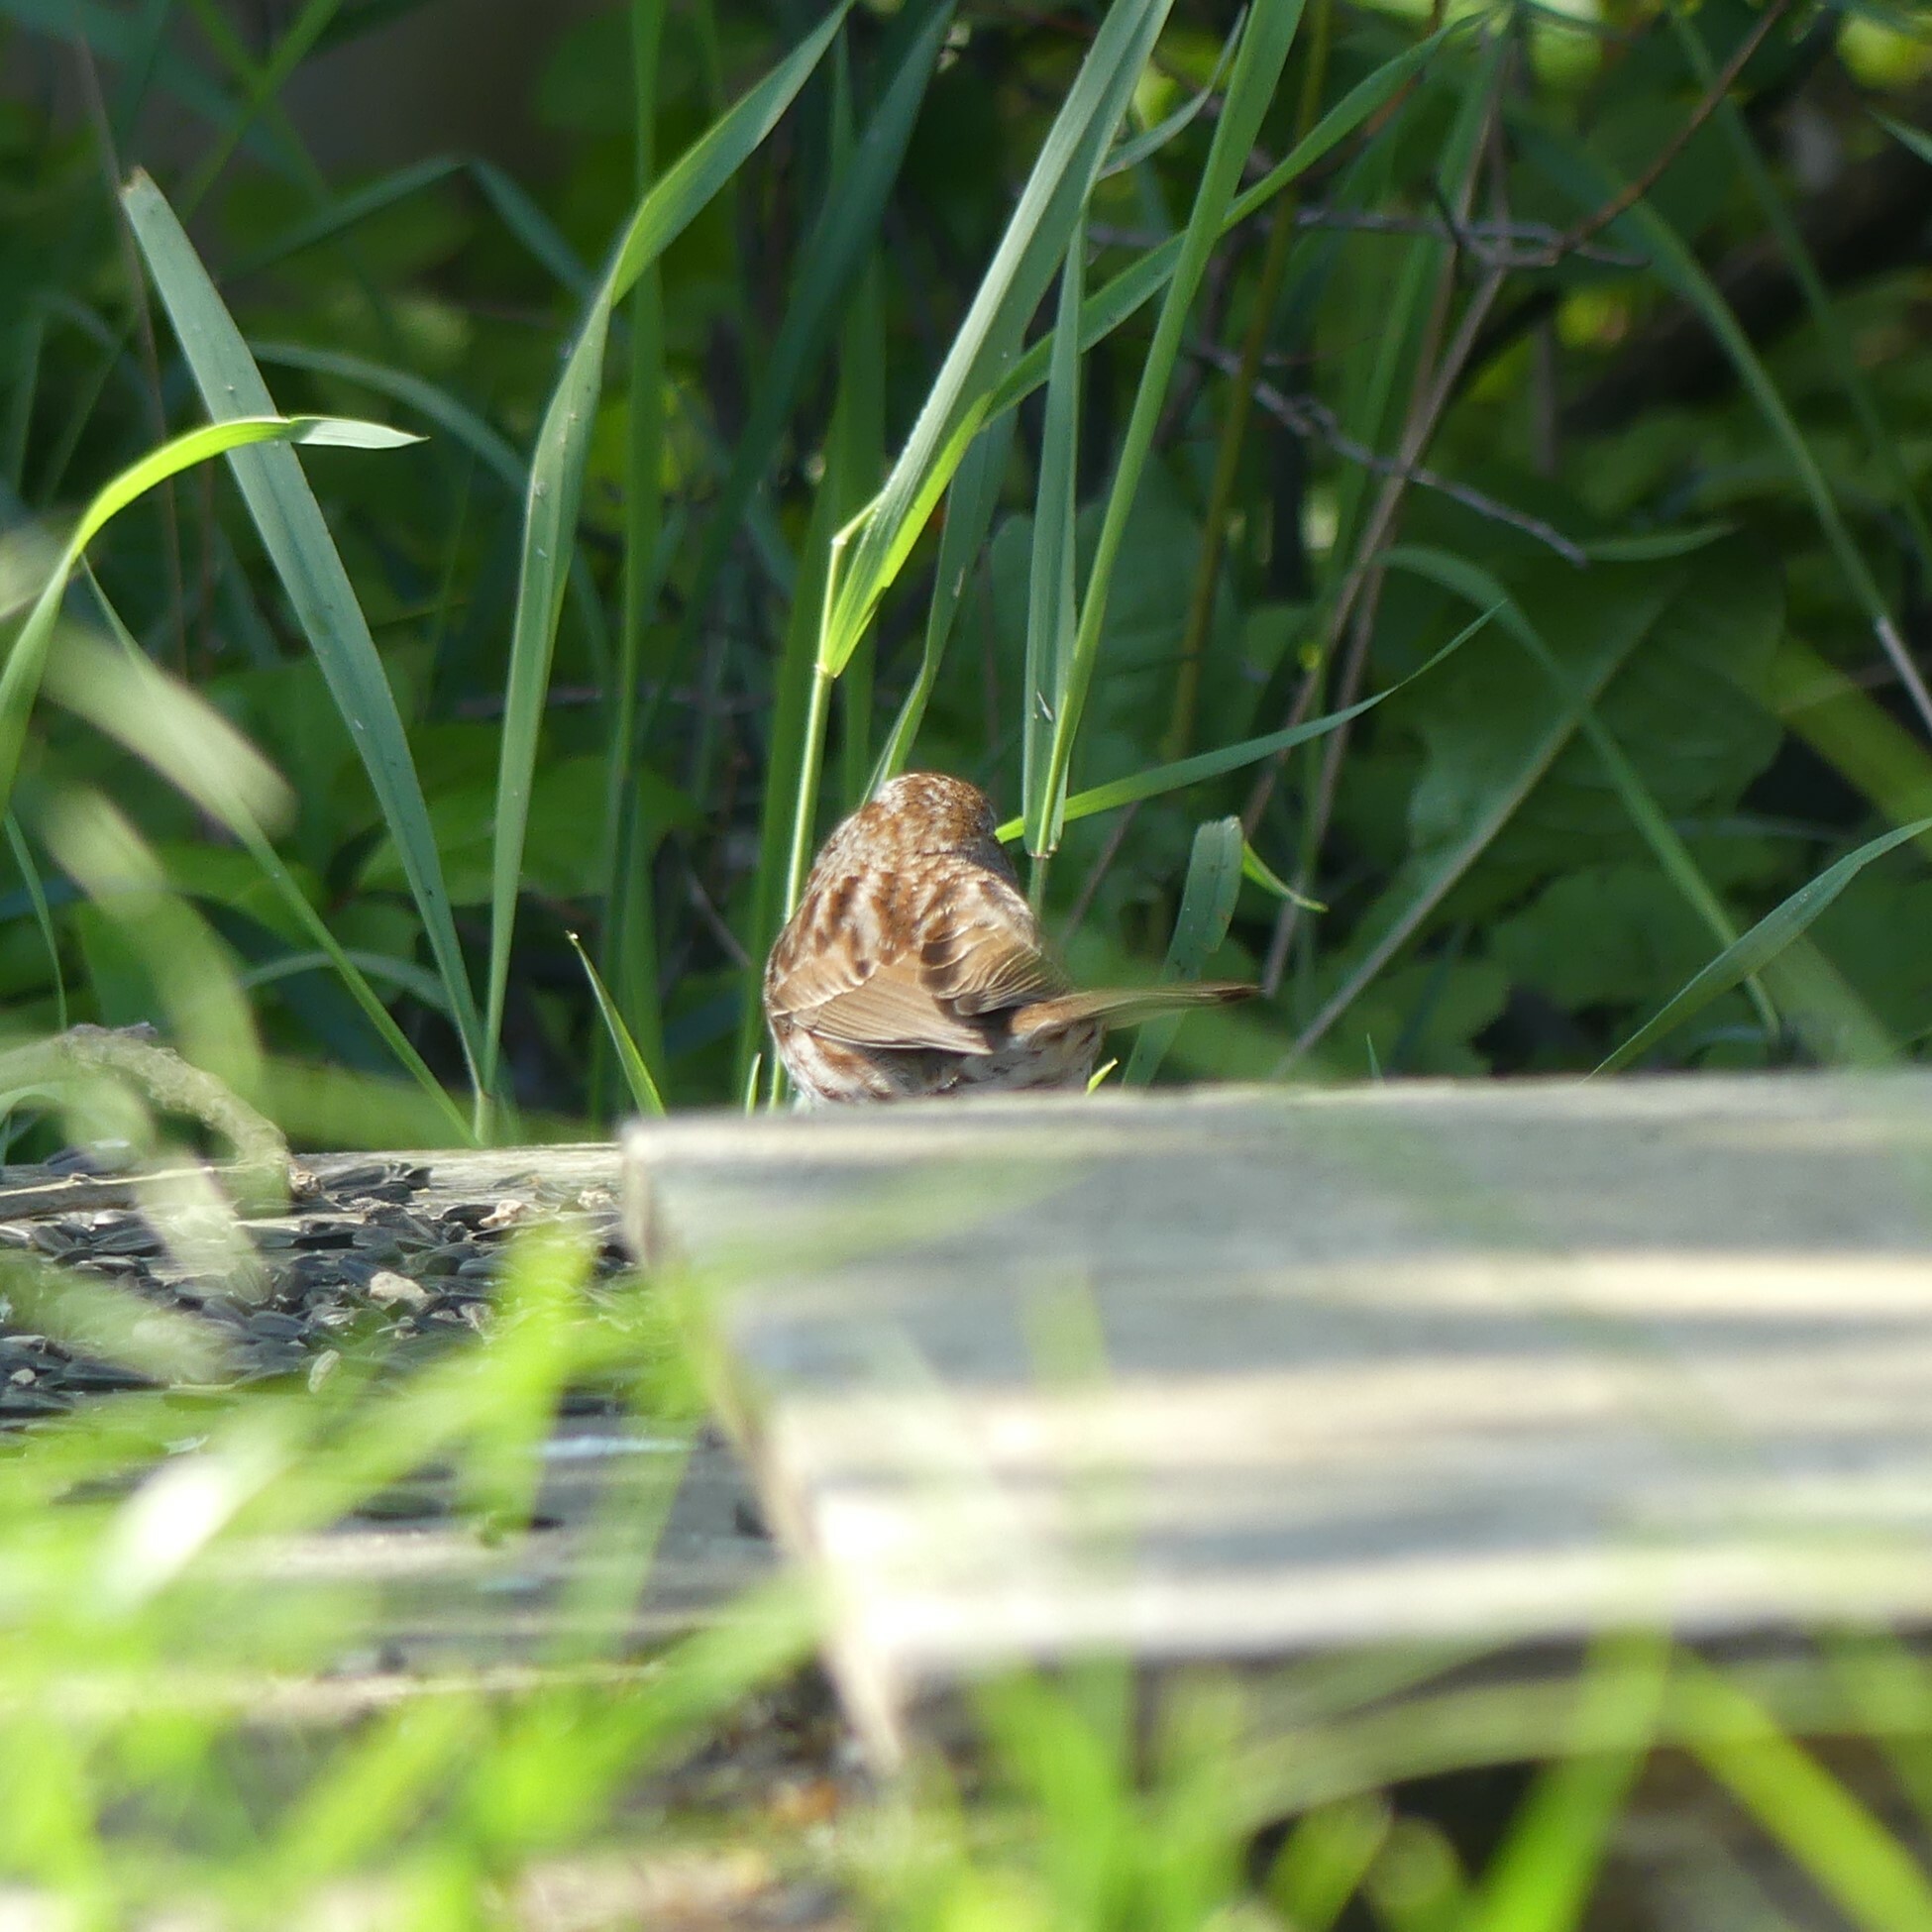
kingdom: Animalia
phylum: Chordata
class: Aves
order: Passeriformes
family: Passerellidae
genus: Melospiza
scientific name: Melospiza melodia
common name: Song sparrow
